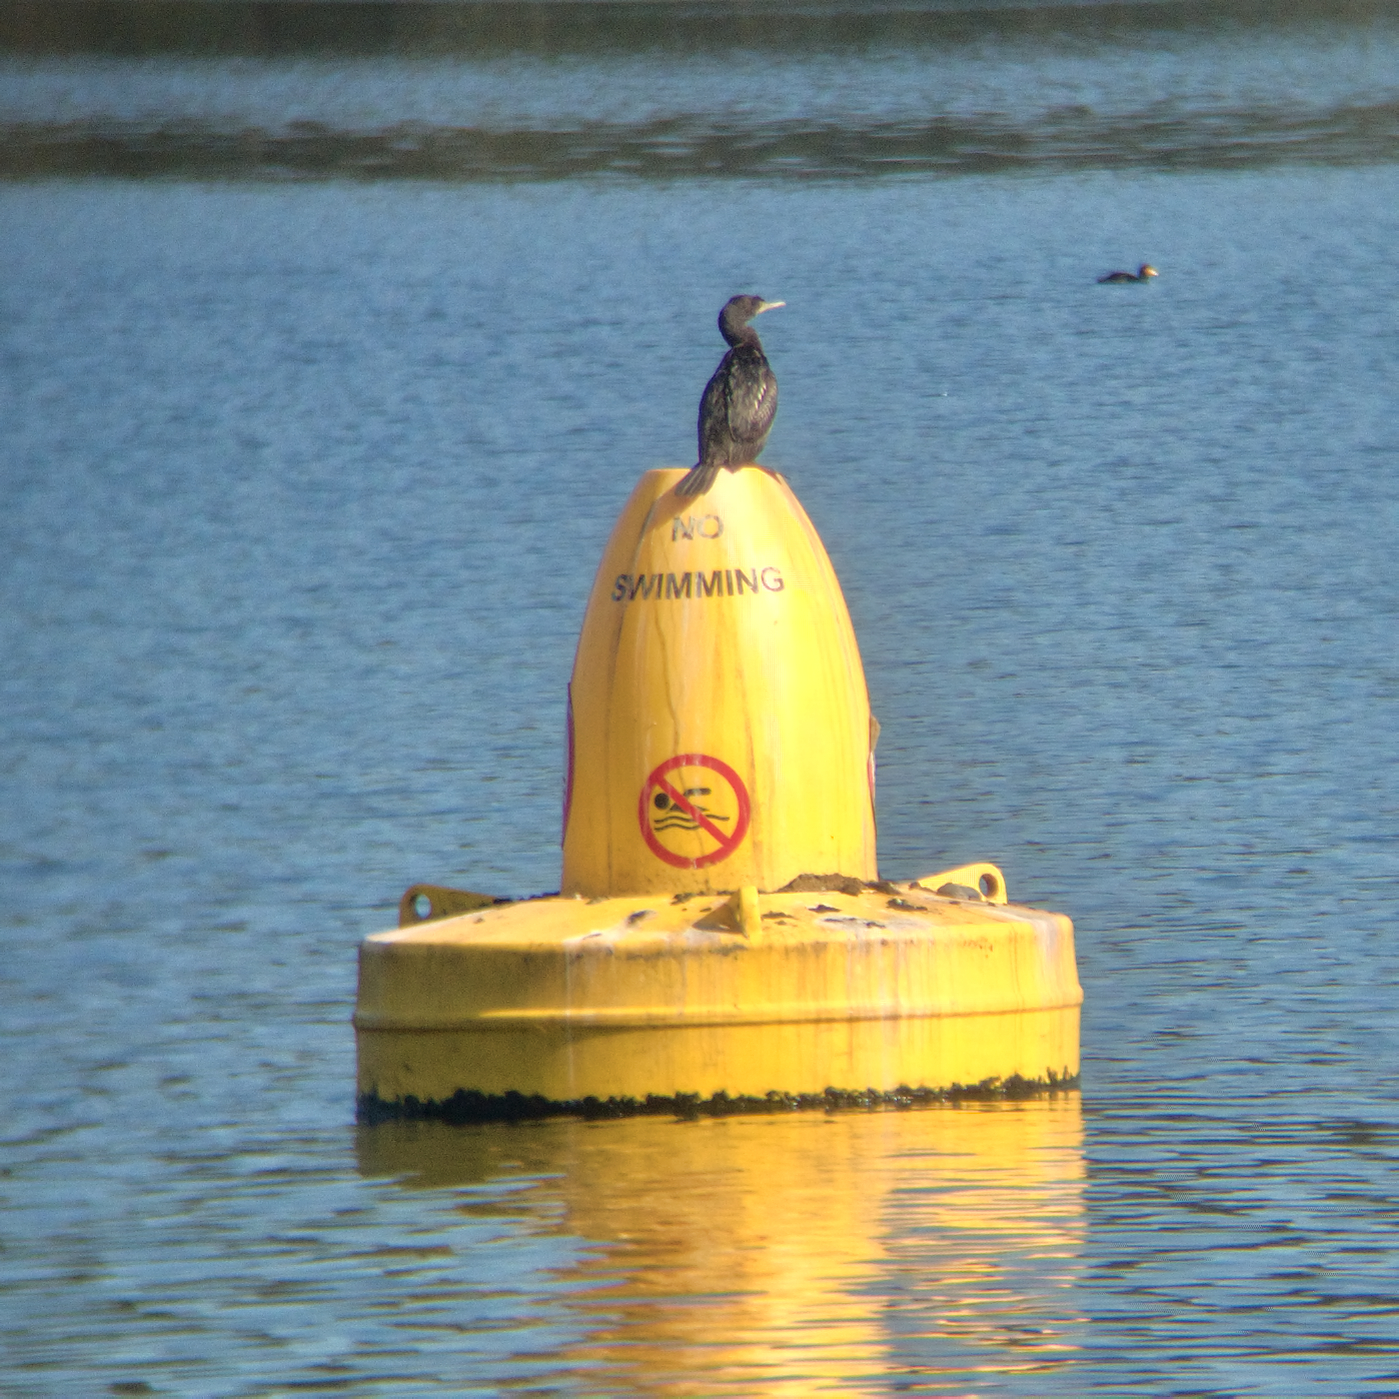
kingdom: Animalia
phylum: Chordata
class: Aves
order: Suliformes
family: Phalacrocoracidae
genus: Phalacrocorax
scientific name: Phalacrocorax sulcirostris
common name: Little black cormorant
